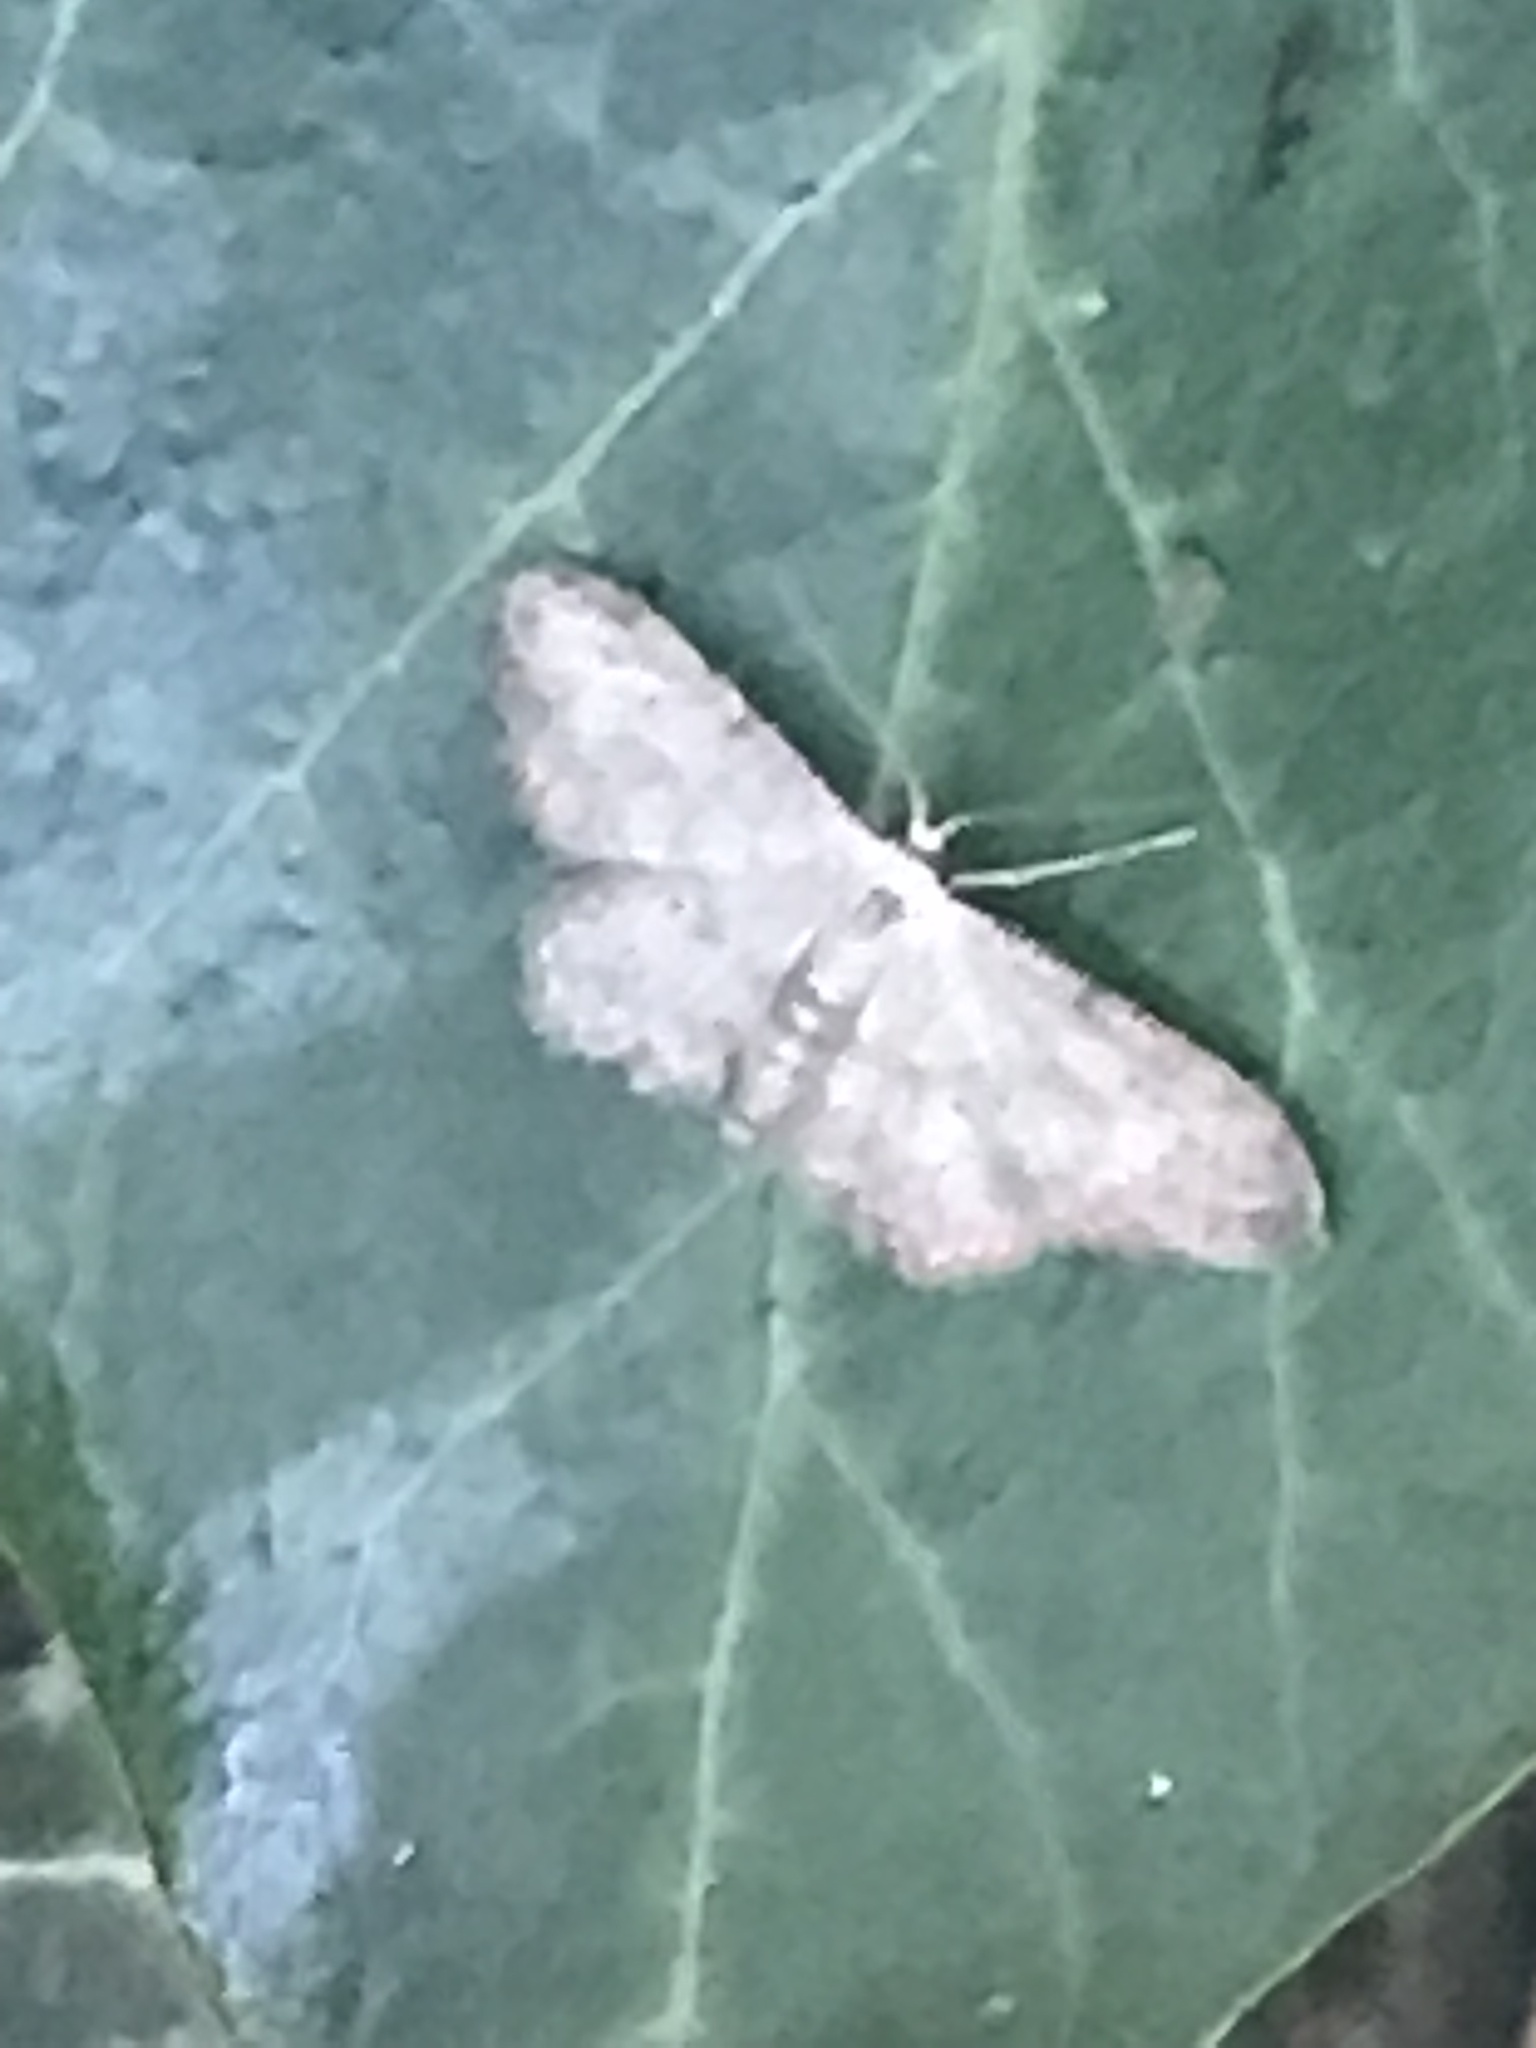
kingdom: Animalia
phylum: Arthropoda
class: Insecta
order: Lepidoptera
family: Geometridae
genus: Idaea
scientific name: Idaea seriata
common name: Small dusty wave
